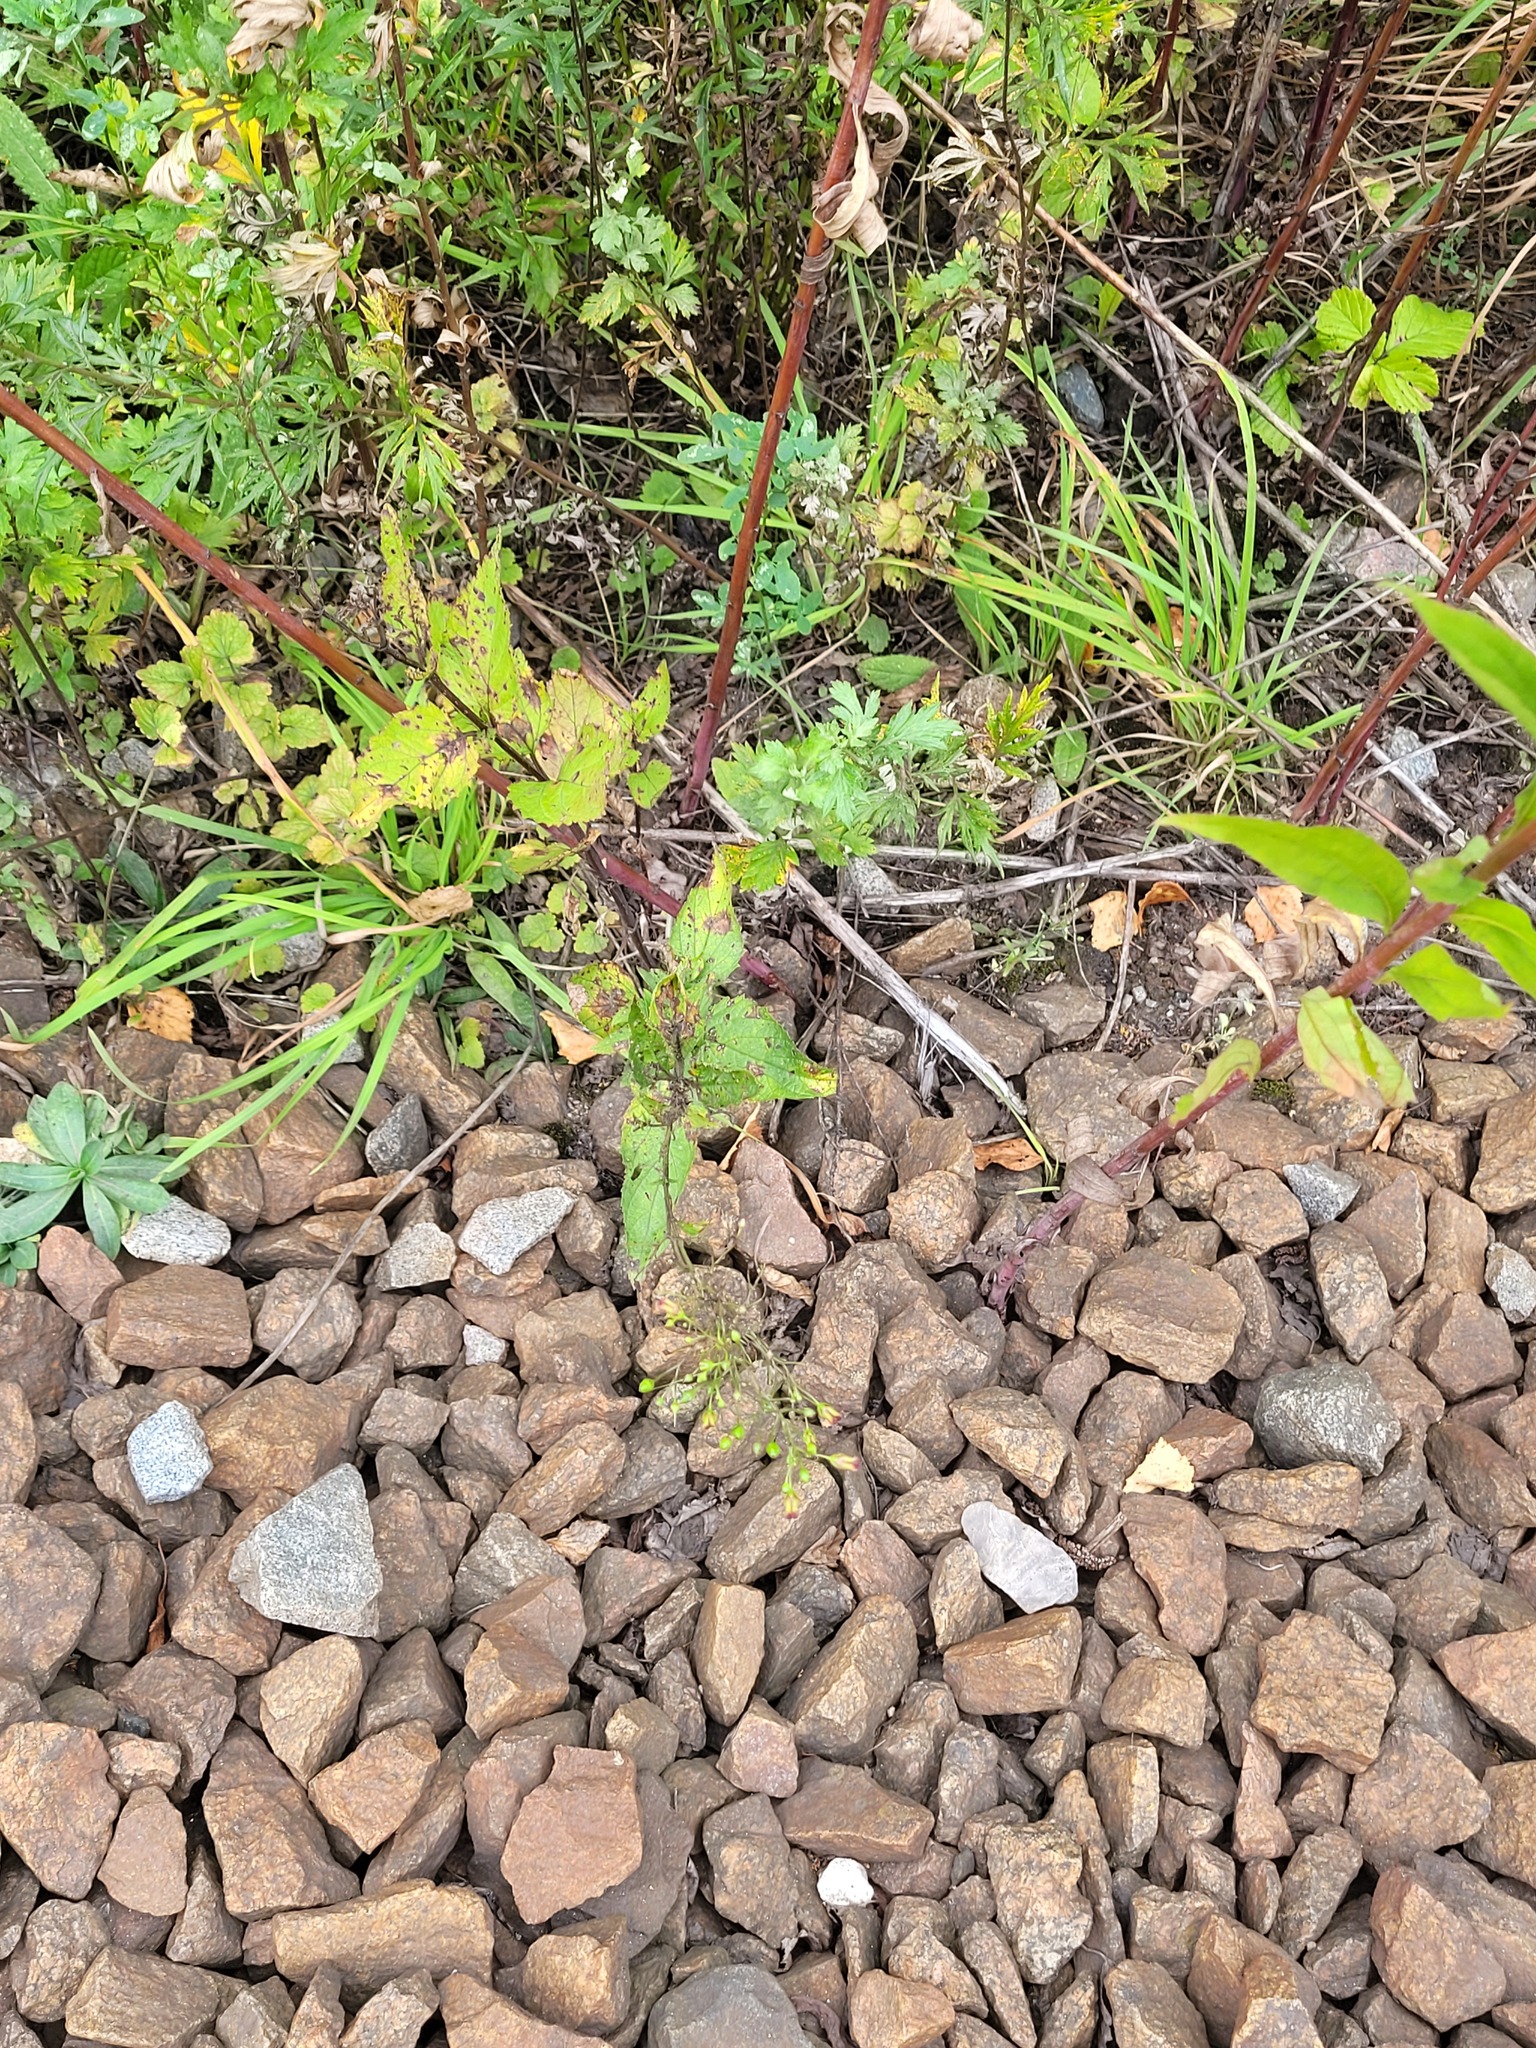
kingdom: Plantae
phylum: Tracheophyta
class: Magnoliopsida
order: Lamiales
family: Scrophulariaceae
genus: Scrophularia
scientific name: Scrophularia nodosa
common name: Common figwort
